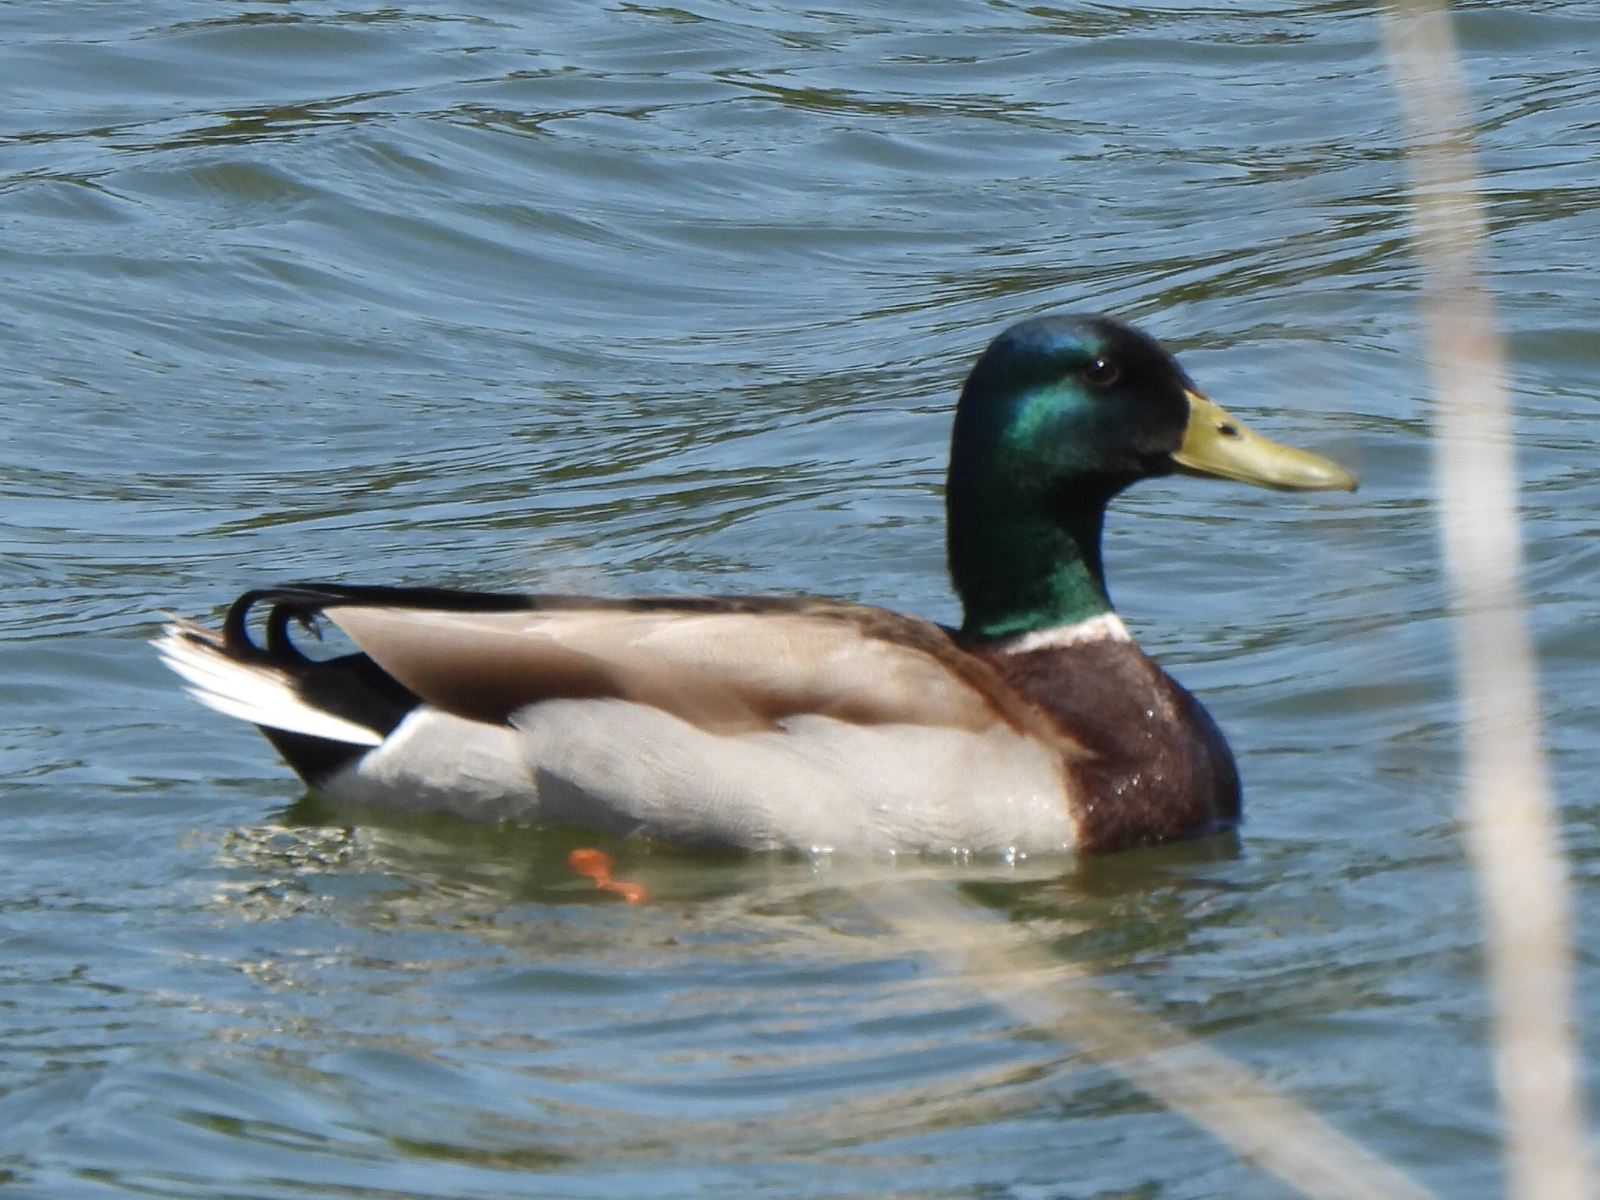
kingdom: Animalia
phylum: Chordata
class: Aves
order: Anseriformes
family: Anatidae
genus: Anas
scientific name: Anas platyrhynchos
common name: Mallard
